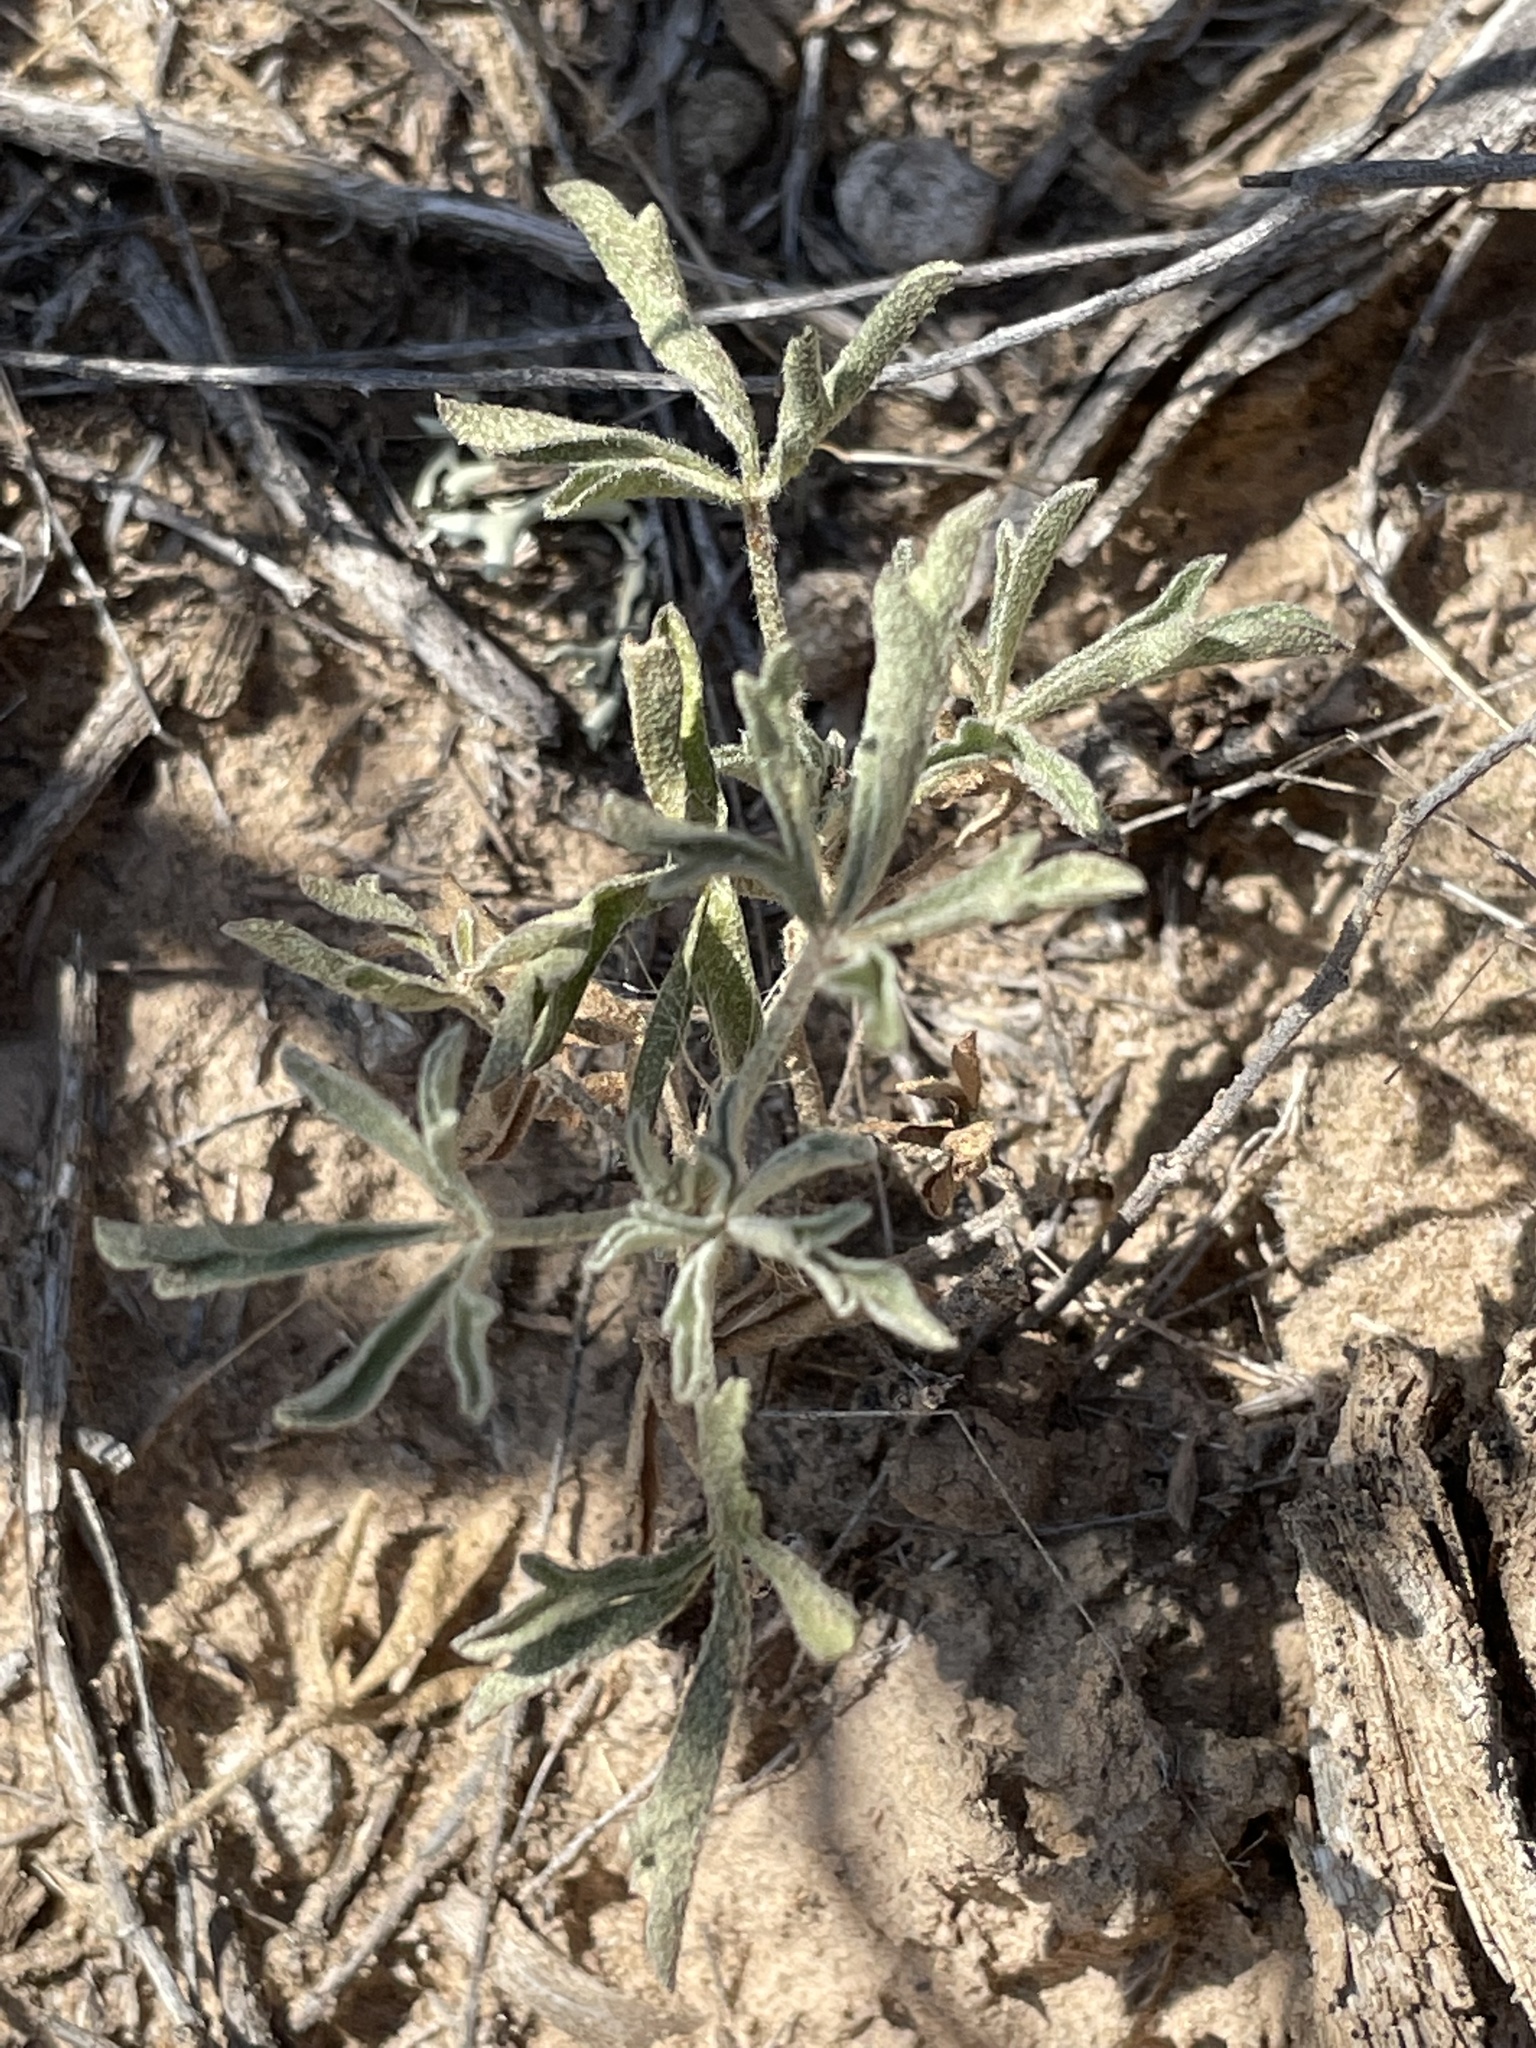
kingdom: Plantae
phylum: Tracheophyta
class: Magnoliopsida
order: Malvales
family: Malvaceae
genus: Sphaeralcea
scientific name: Sphaeralcea coccinea
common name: Moss-rose
